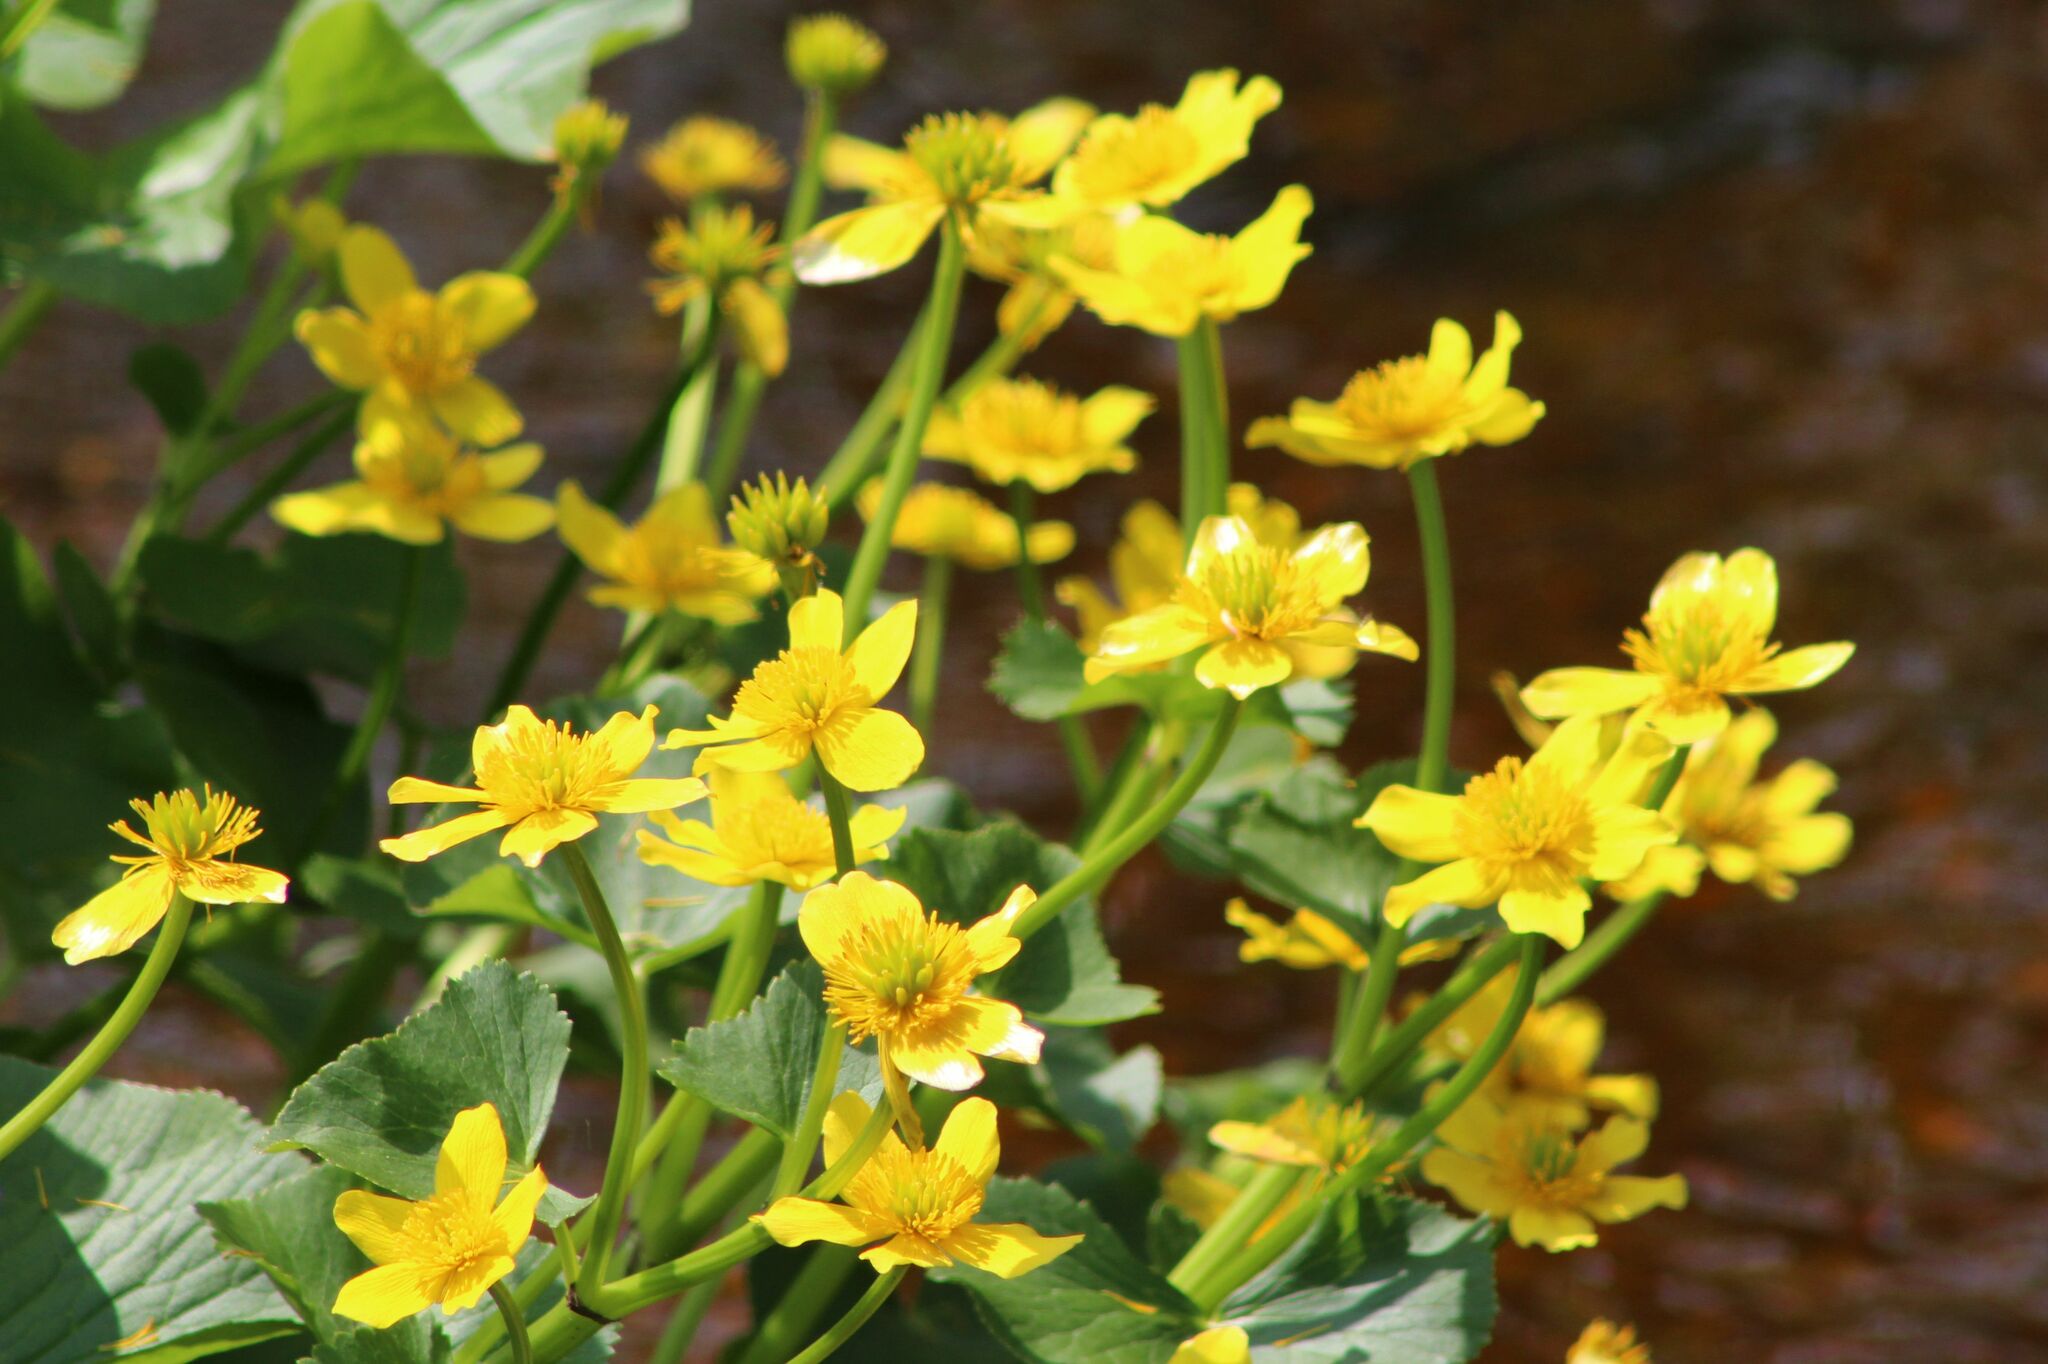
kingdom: Plantae
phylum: Tracheophyta
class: Magnoliopsida
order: Ranunculales
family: Ranunculaceae
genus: Caltha
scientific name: Caltha palustris
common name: Marsh marigold
